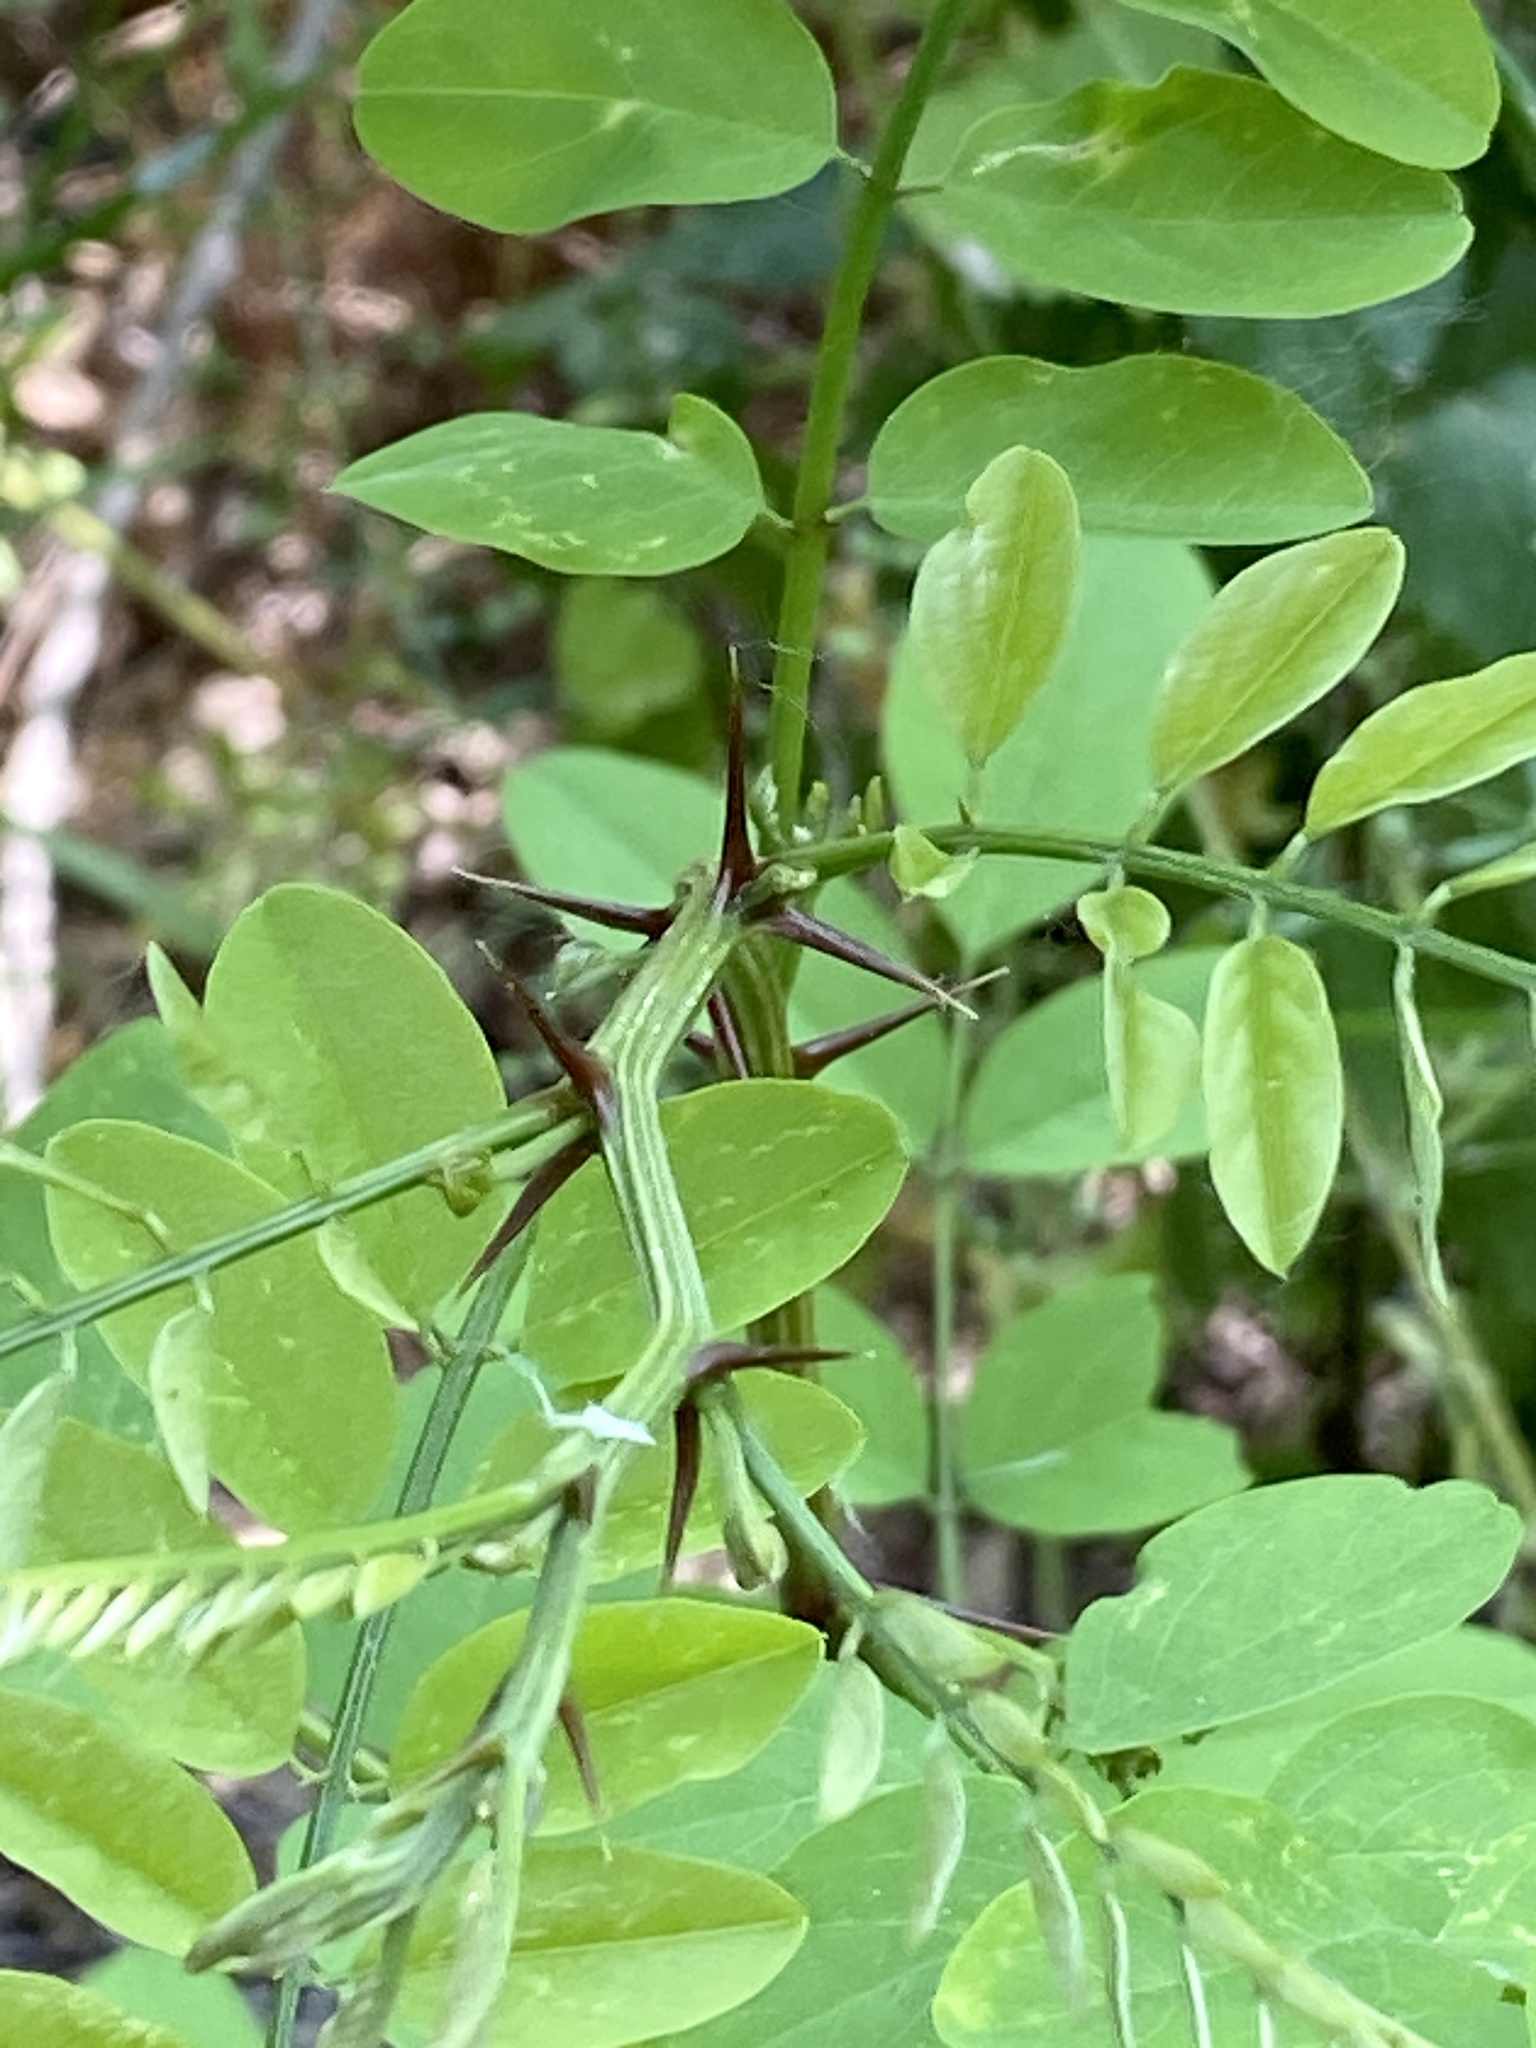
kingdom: Plantae
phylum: Tracheophyta
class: Magnoliopsida
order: Fabales
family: Fabaceae
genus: Robinia
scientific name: Robinia pseudoacacia
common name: Black locust
